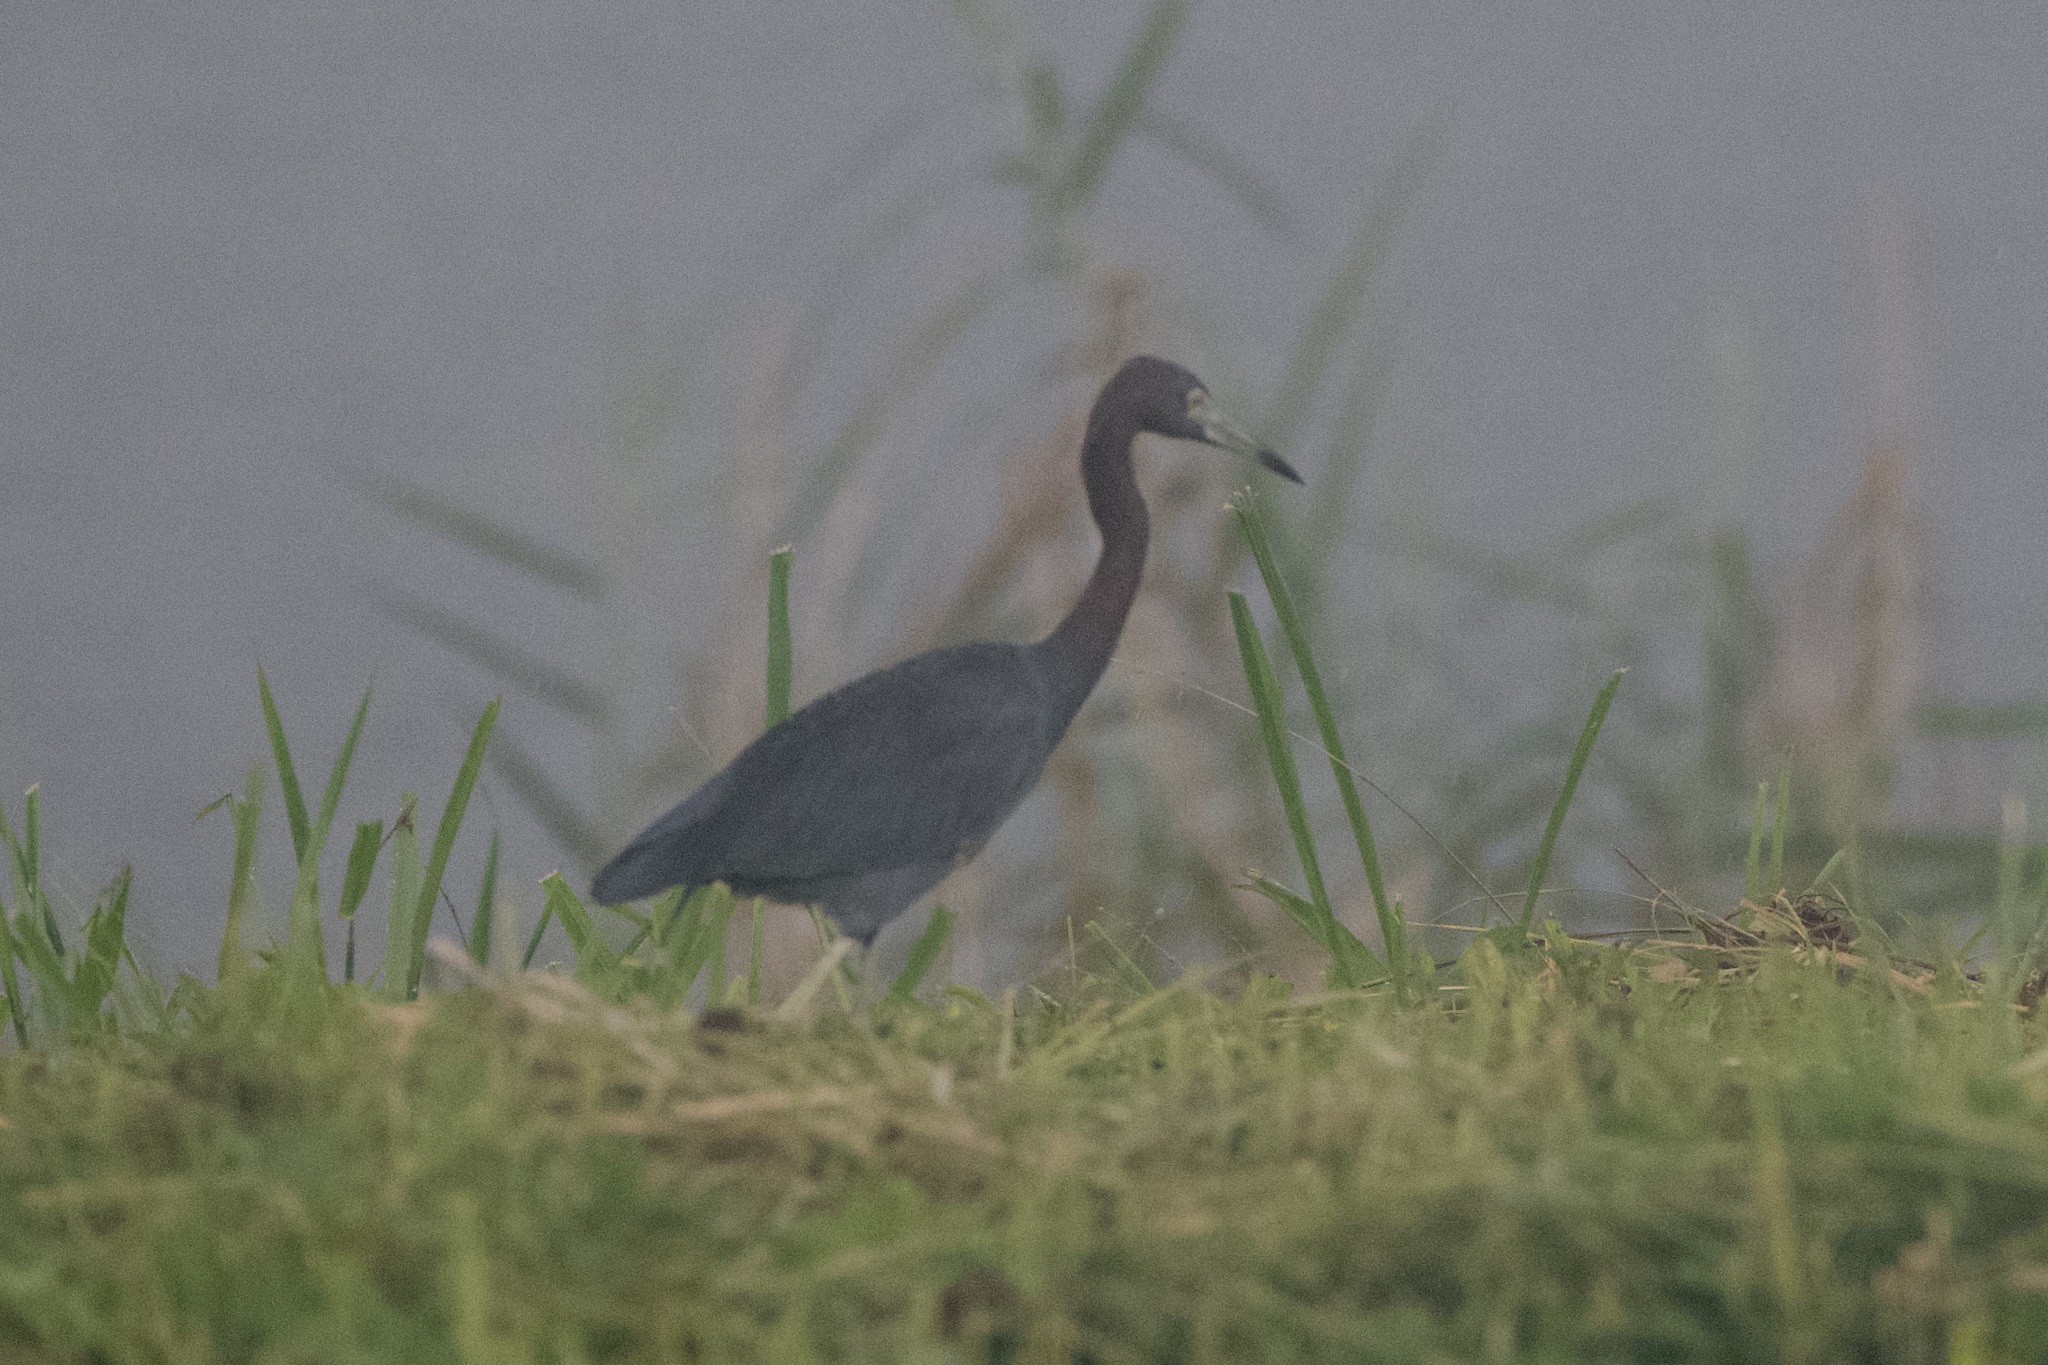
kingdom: Animalia
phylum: Chordata
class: Aves
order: Pelecaniformes
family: Ardeidae
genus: Egretta
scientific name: Egretta caerulea
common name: Little blue heron
